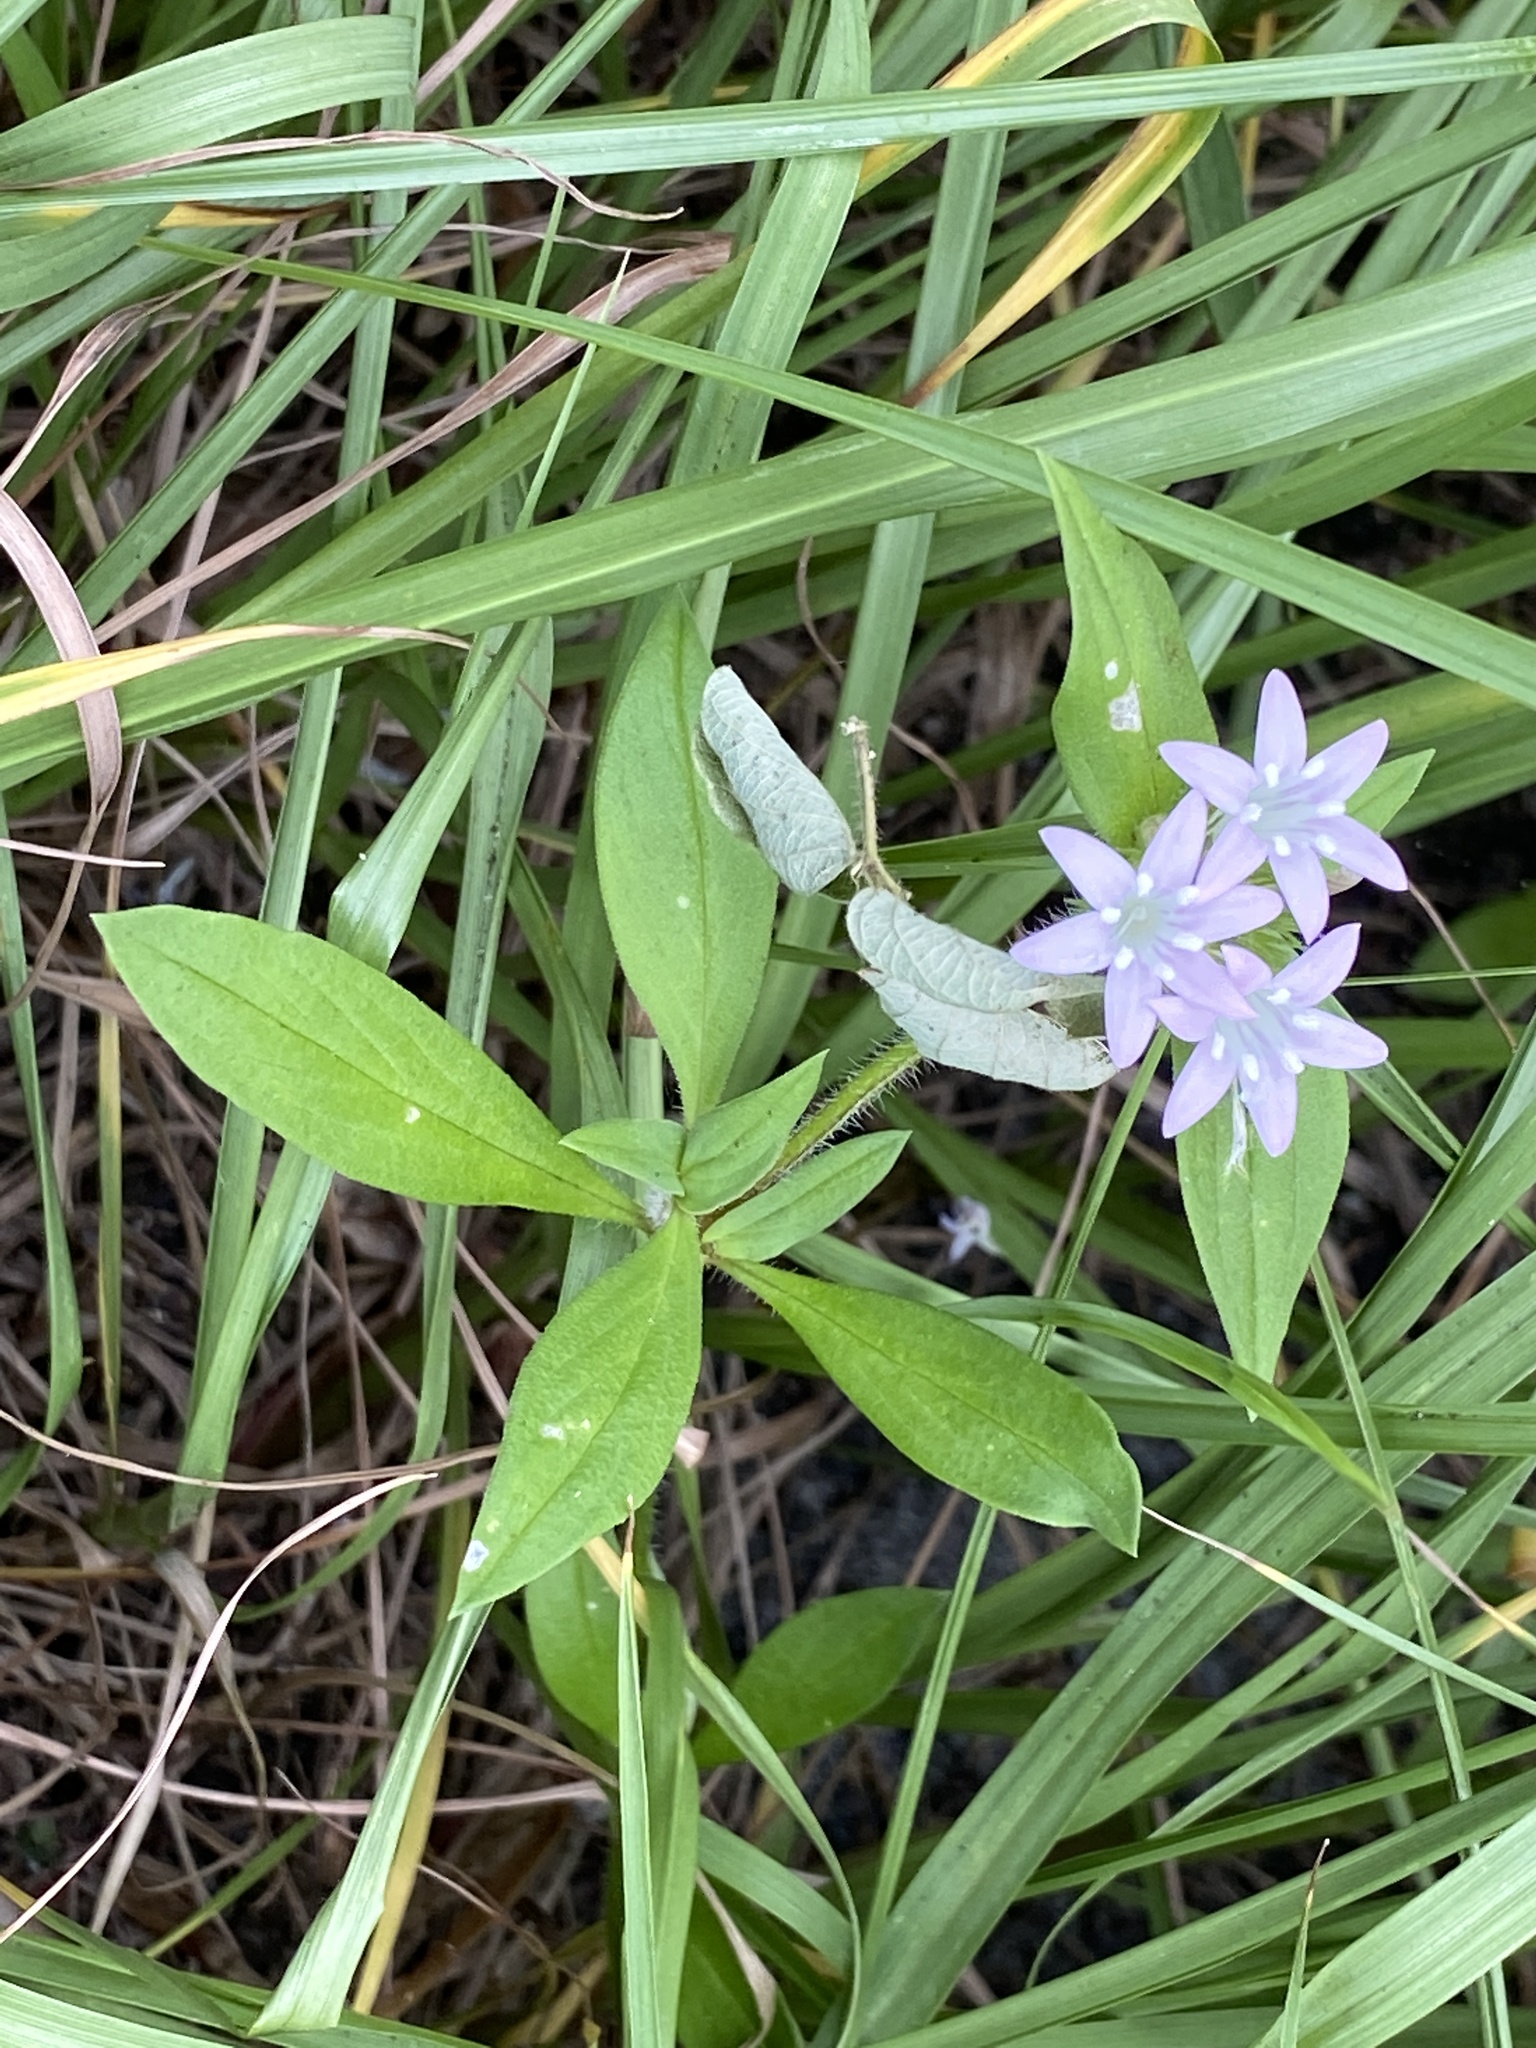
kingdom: Plantae
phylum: Tracheophyta
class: Magnoliopsida
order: Gentianales
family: Rubiaceae
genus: Richardia
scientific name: Richardia grandiflora
